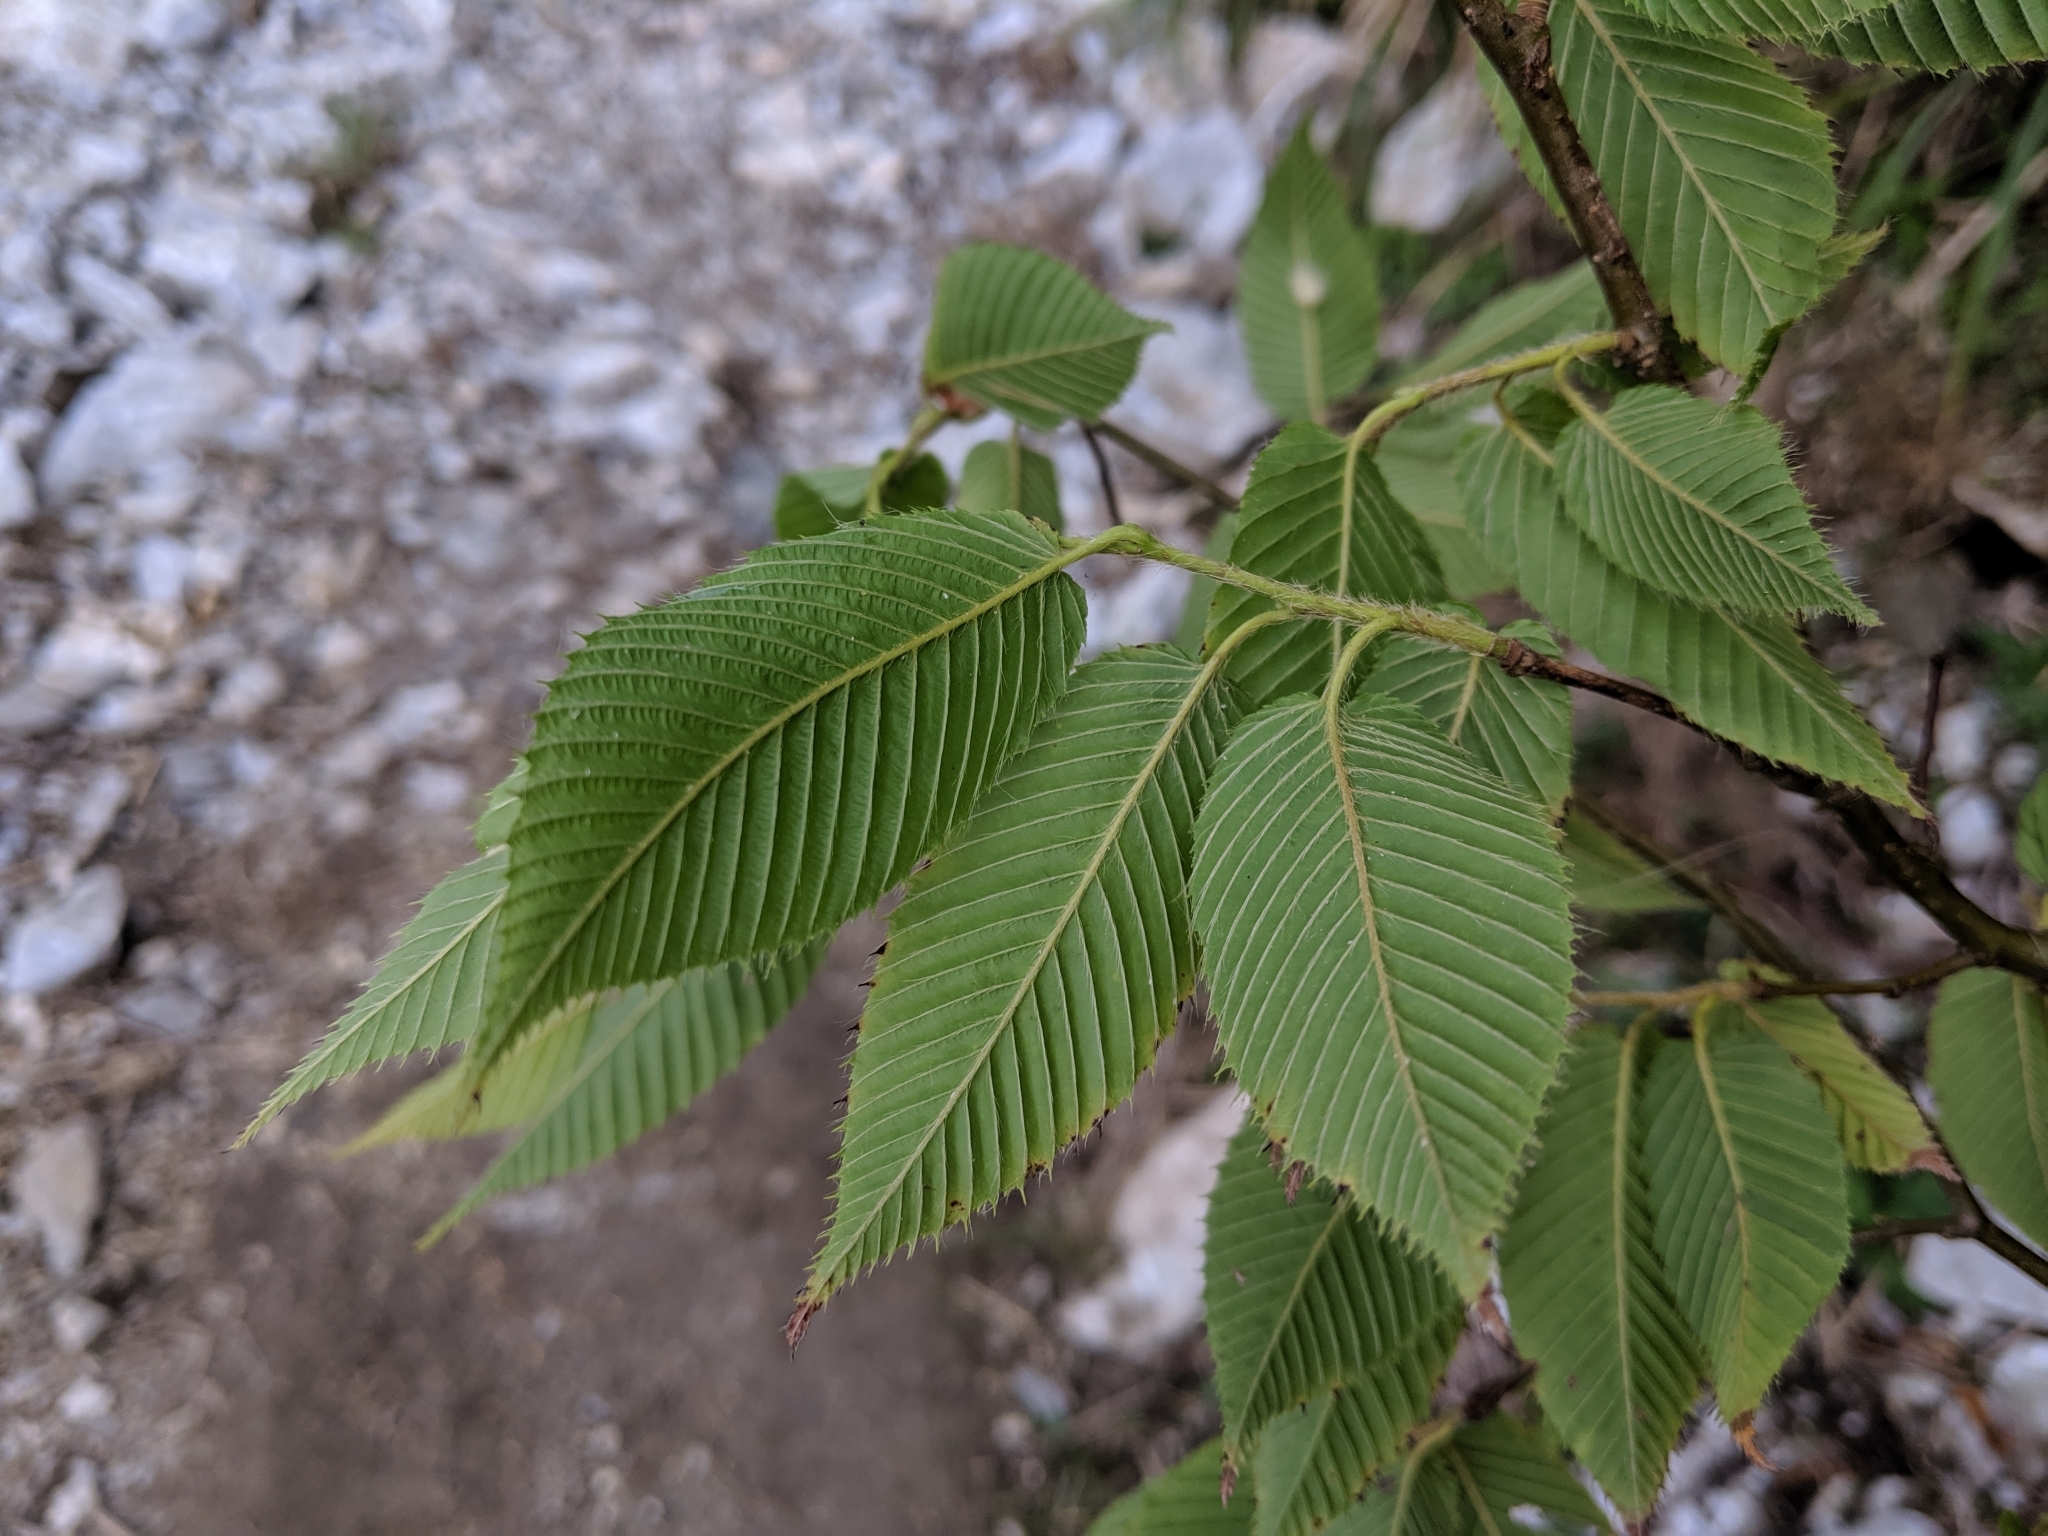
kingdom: Plantae
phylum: Tracheophyta
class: Magnoliopsida
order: Fagales
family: Betulaceae
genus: Carpinus
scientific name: Carpinus rankanensis
